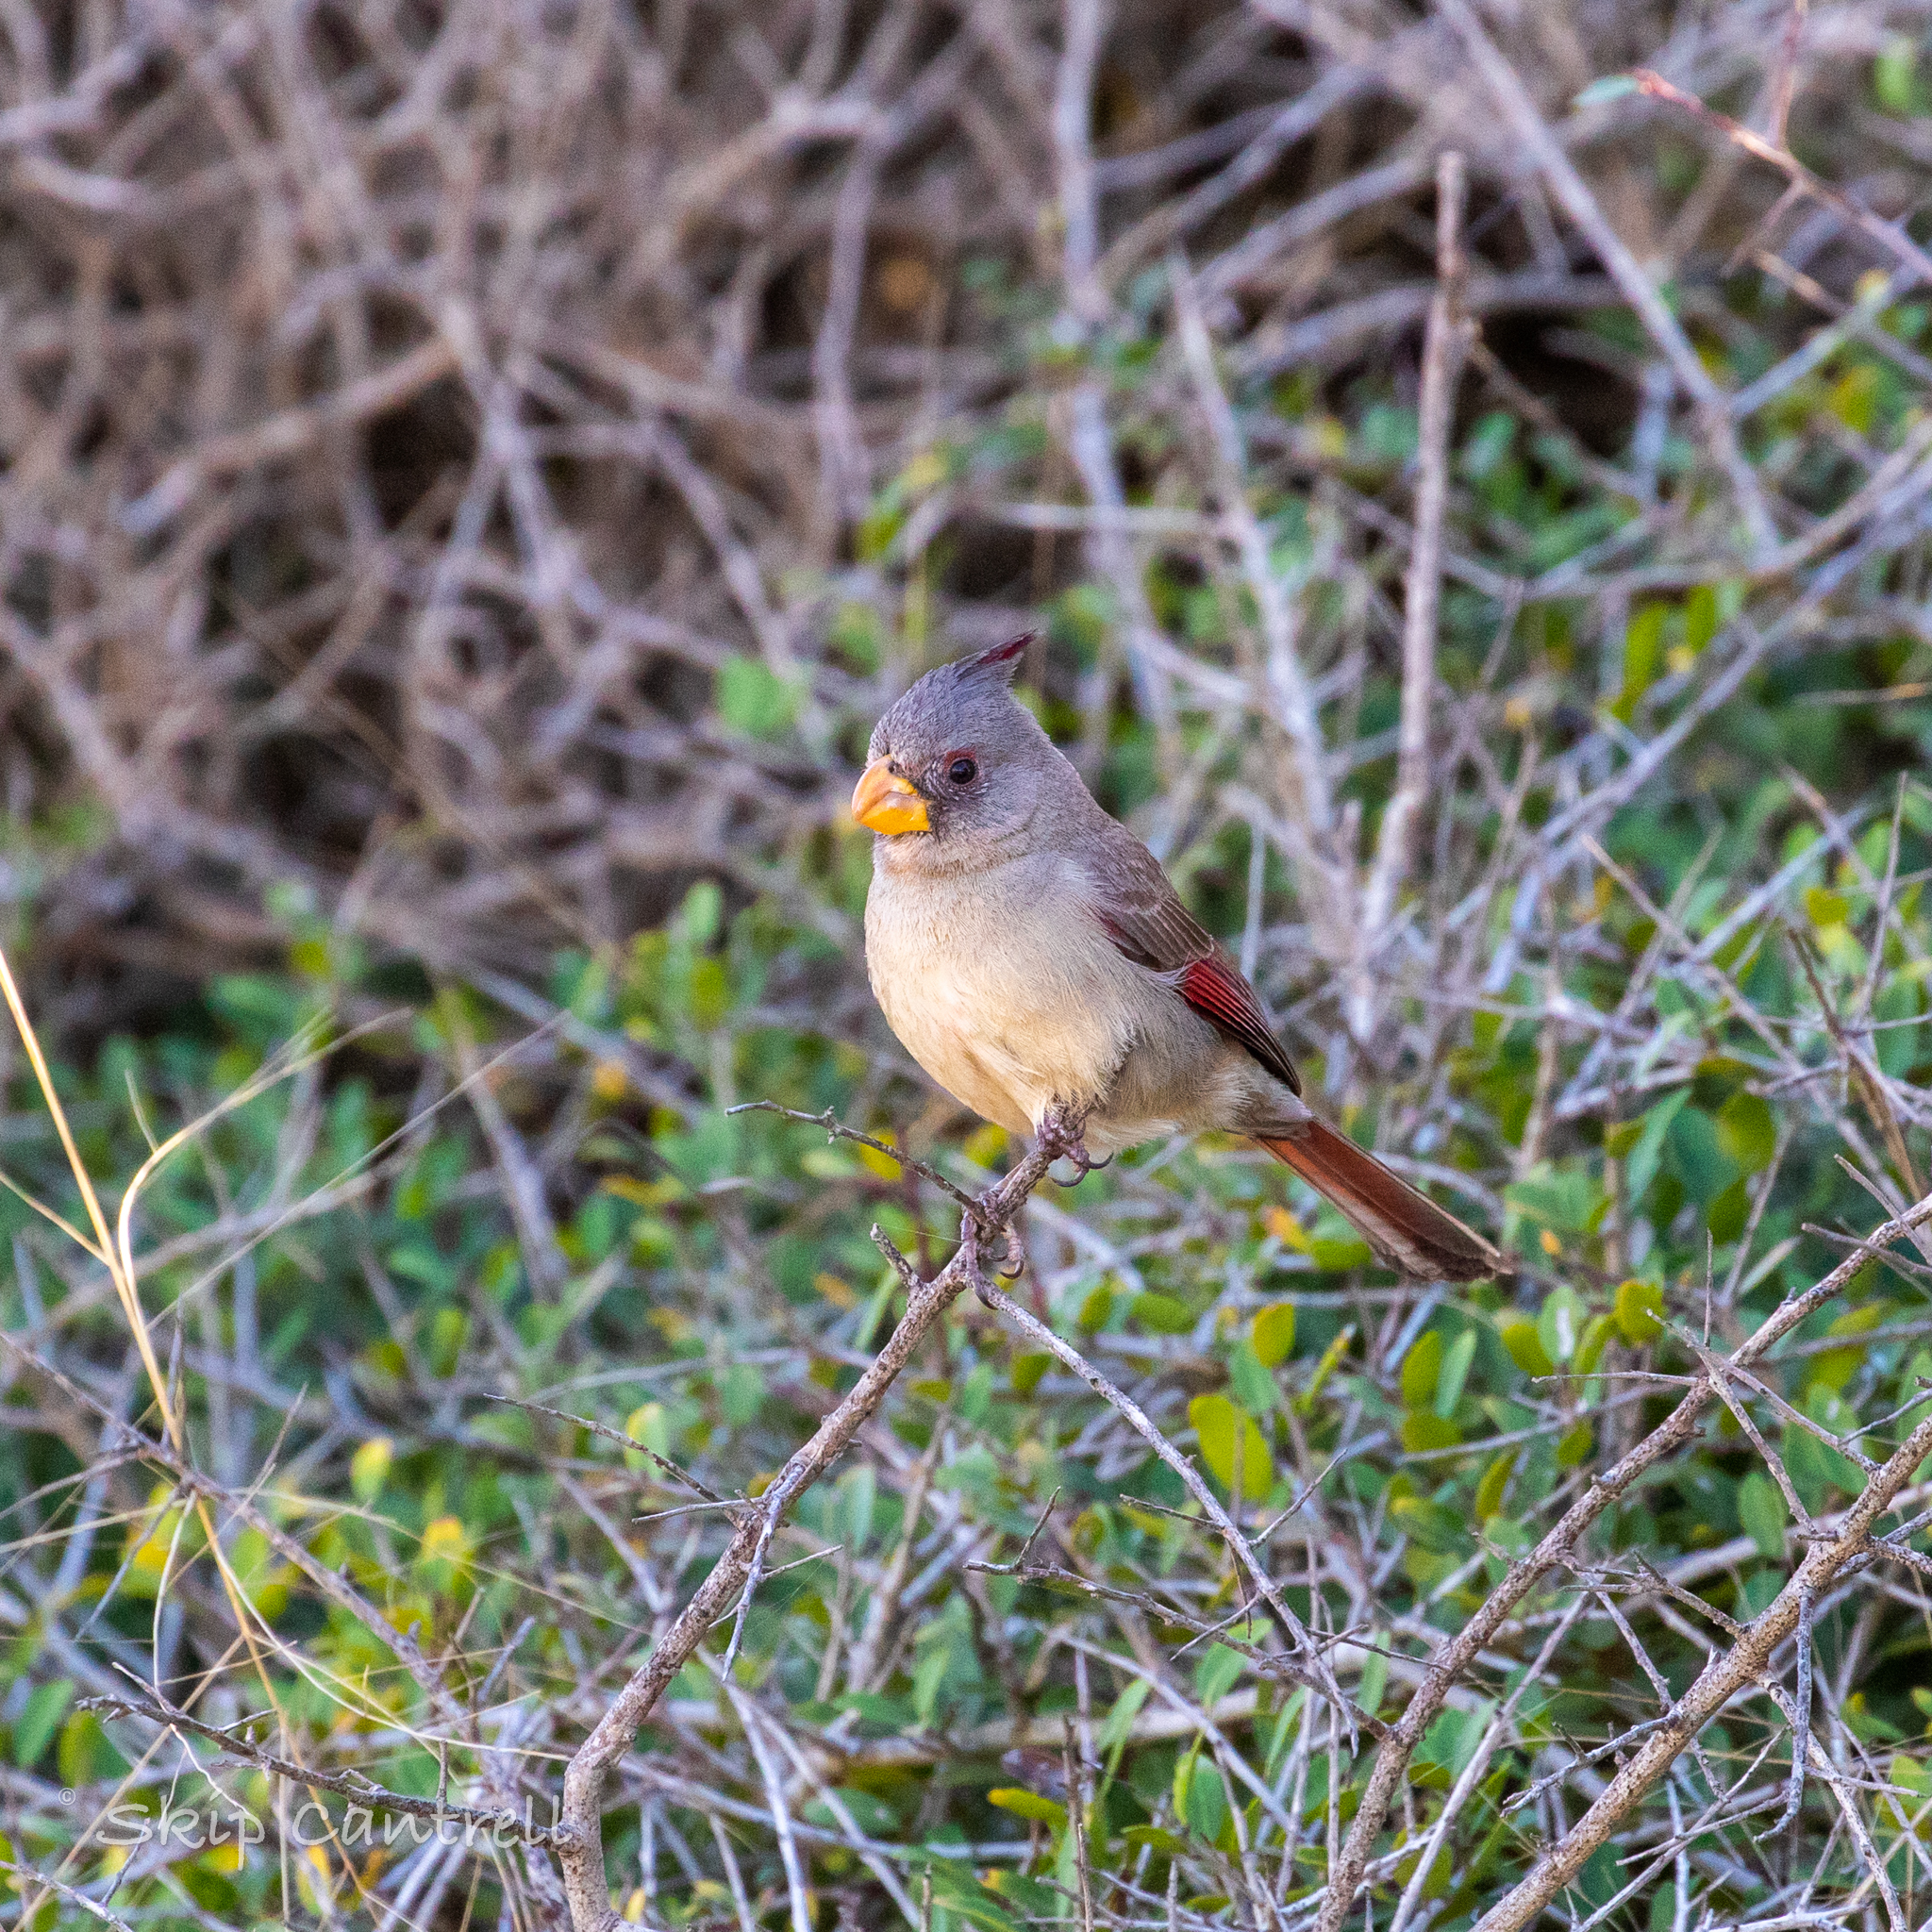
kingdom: Animalia
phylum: Chordata
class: Aves
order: Passeriformes
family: Cardinalidae
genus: Cardinalis
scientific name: Cardinalis sinuatus
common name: Pyrrhuloxia
